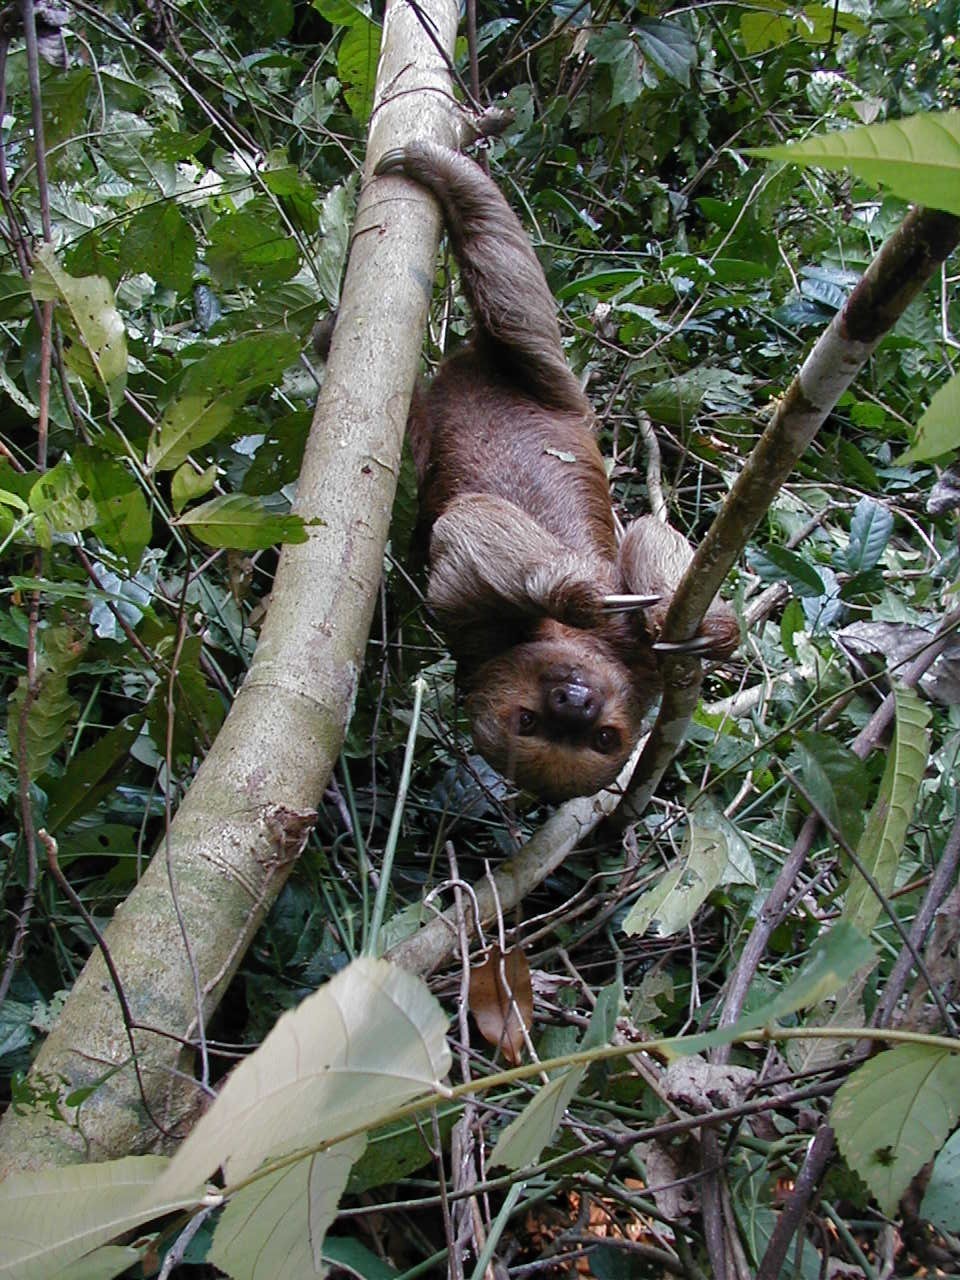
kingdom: Animalia
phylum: Chordata
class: Mammalia
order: Pilosa
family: Megalonychidae
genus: Choloepus
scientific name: Choloepus hoffmanni
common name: Hoffmann's two-toed sloth
